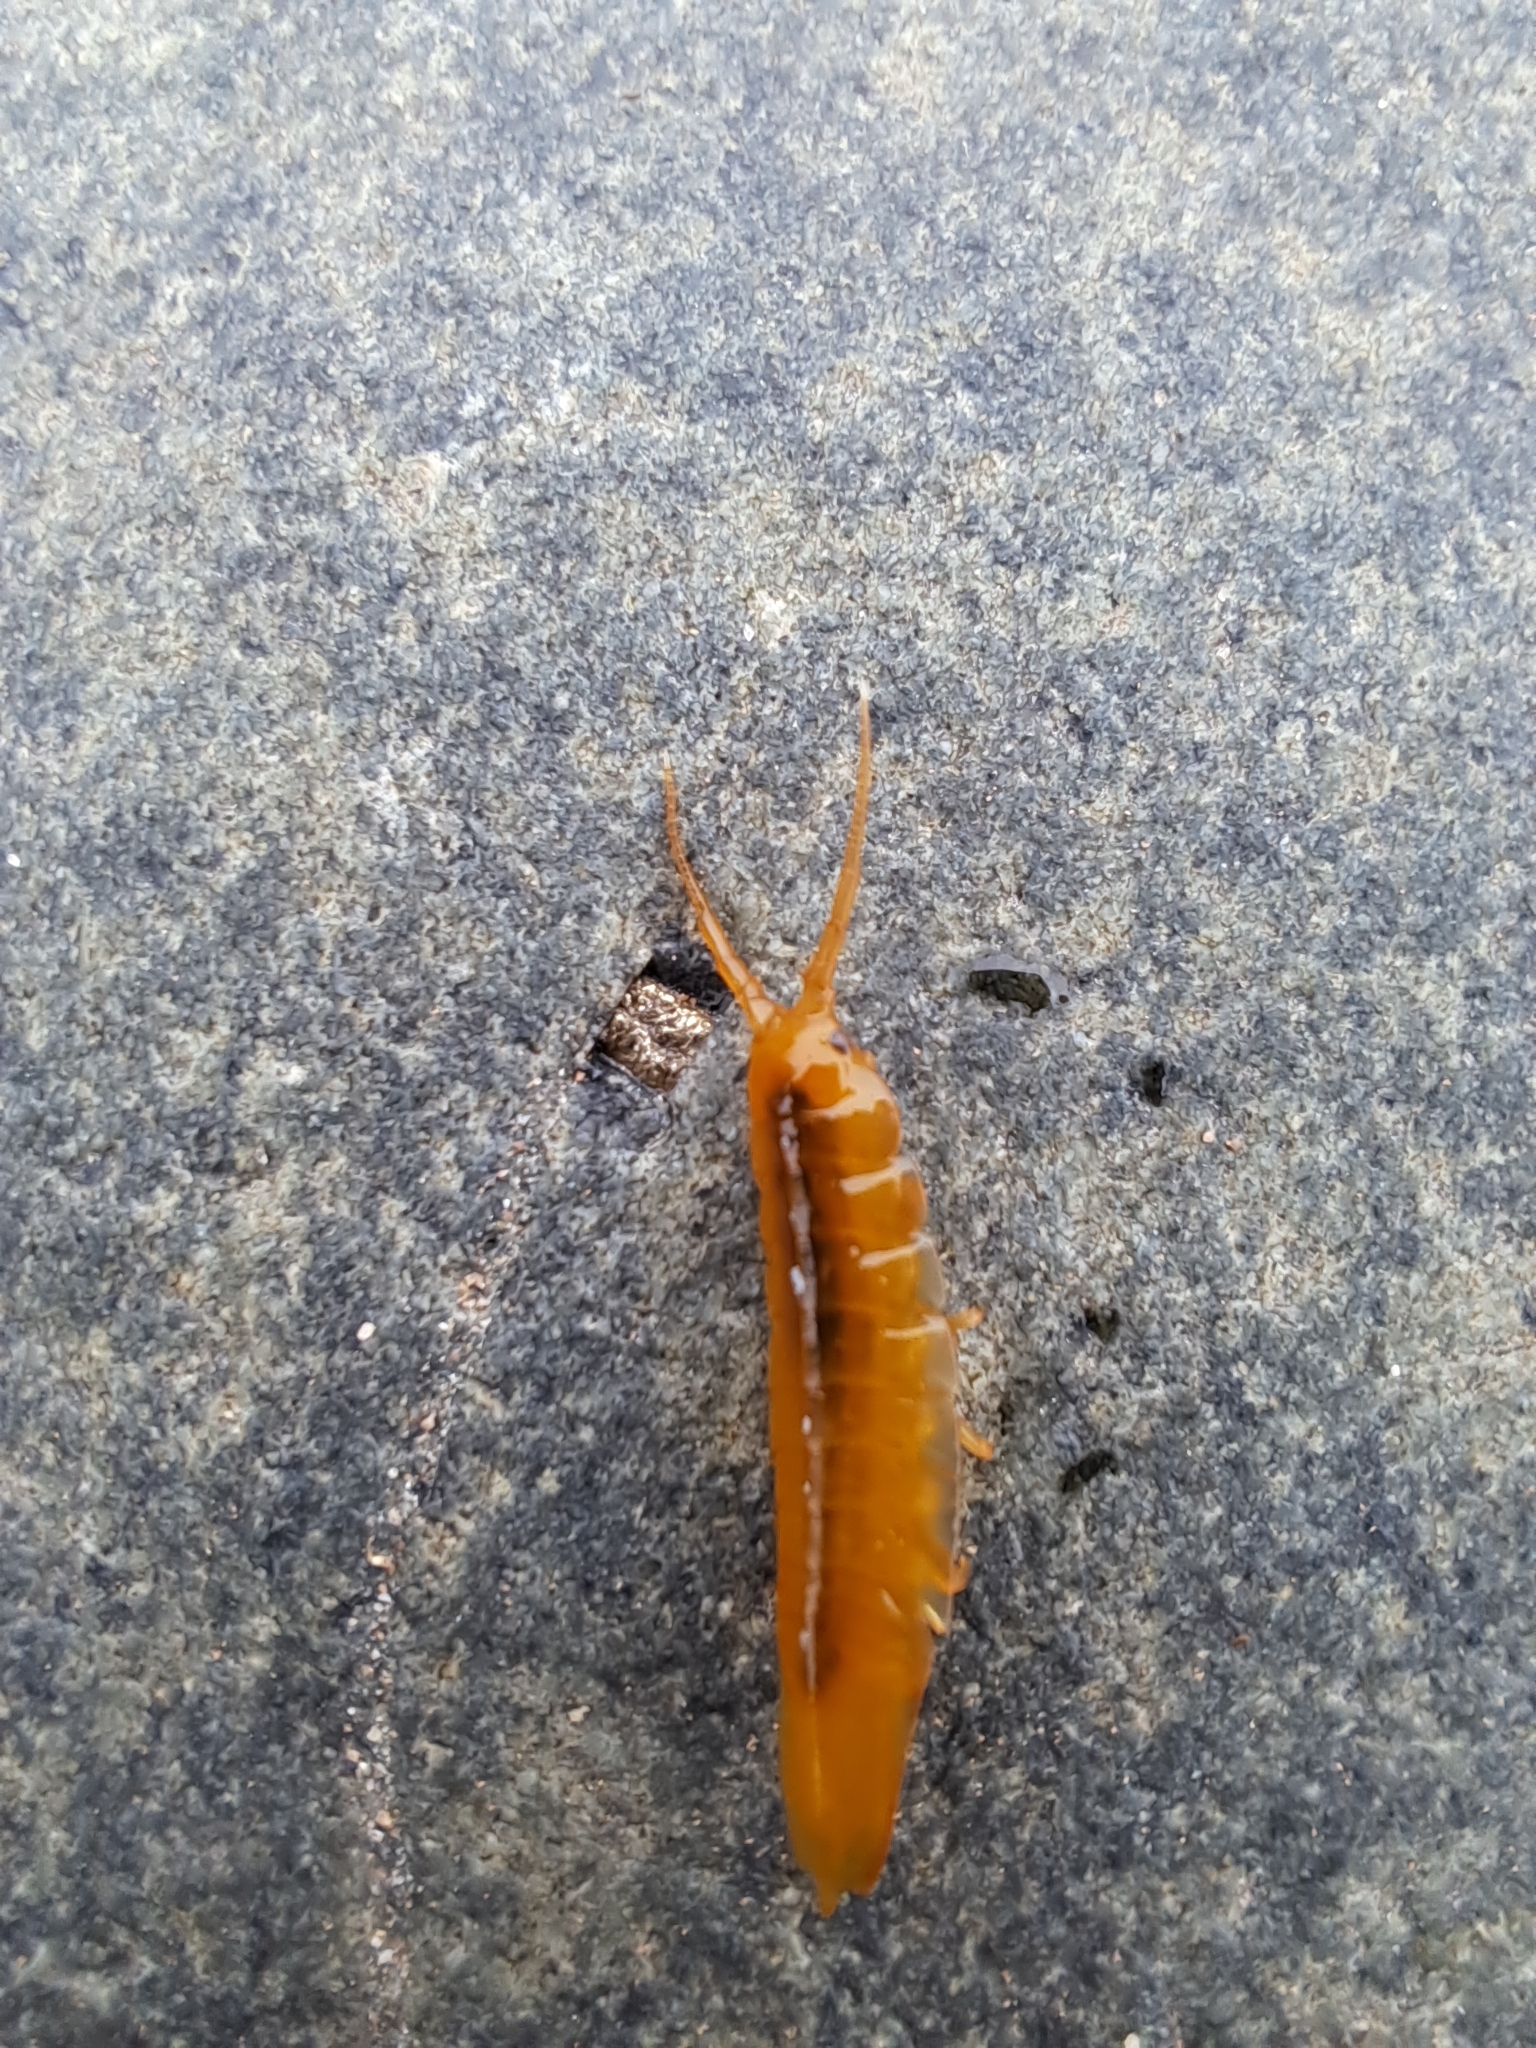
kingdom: Animalia
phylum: Arthropoda
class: Malacostraca
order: Isopoda
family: Idoteidae
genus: Idotea
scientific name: Idotea balthica
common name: Baltic isopod
